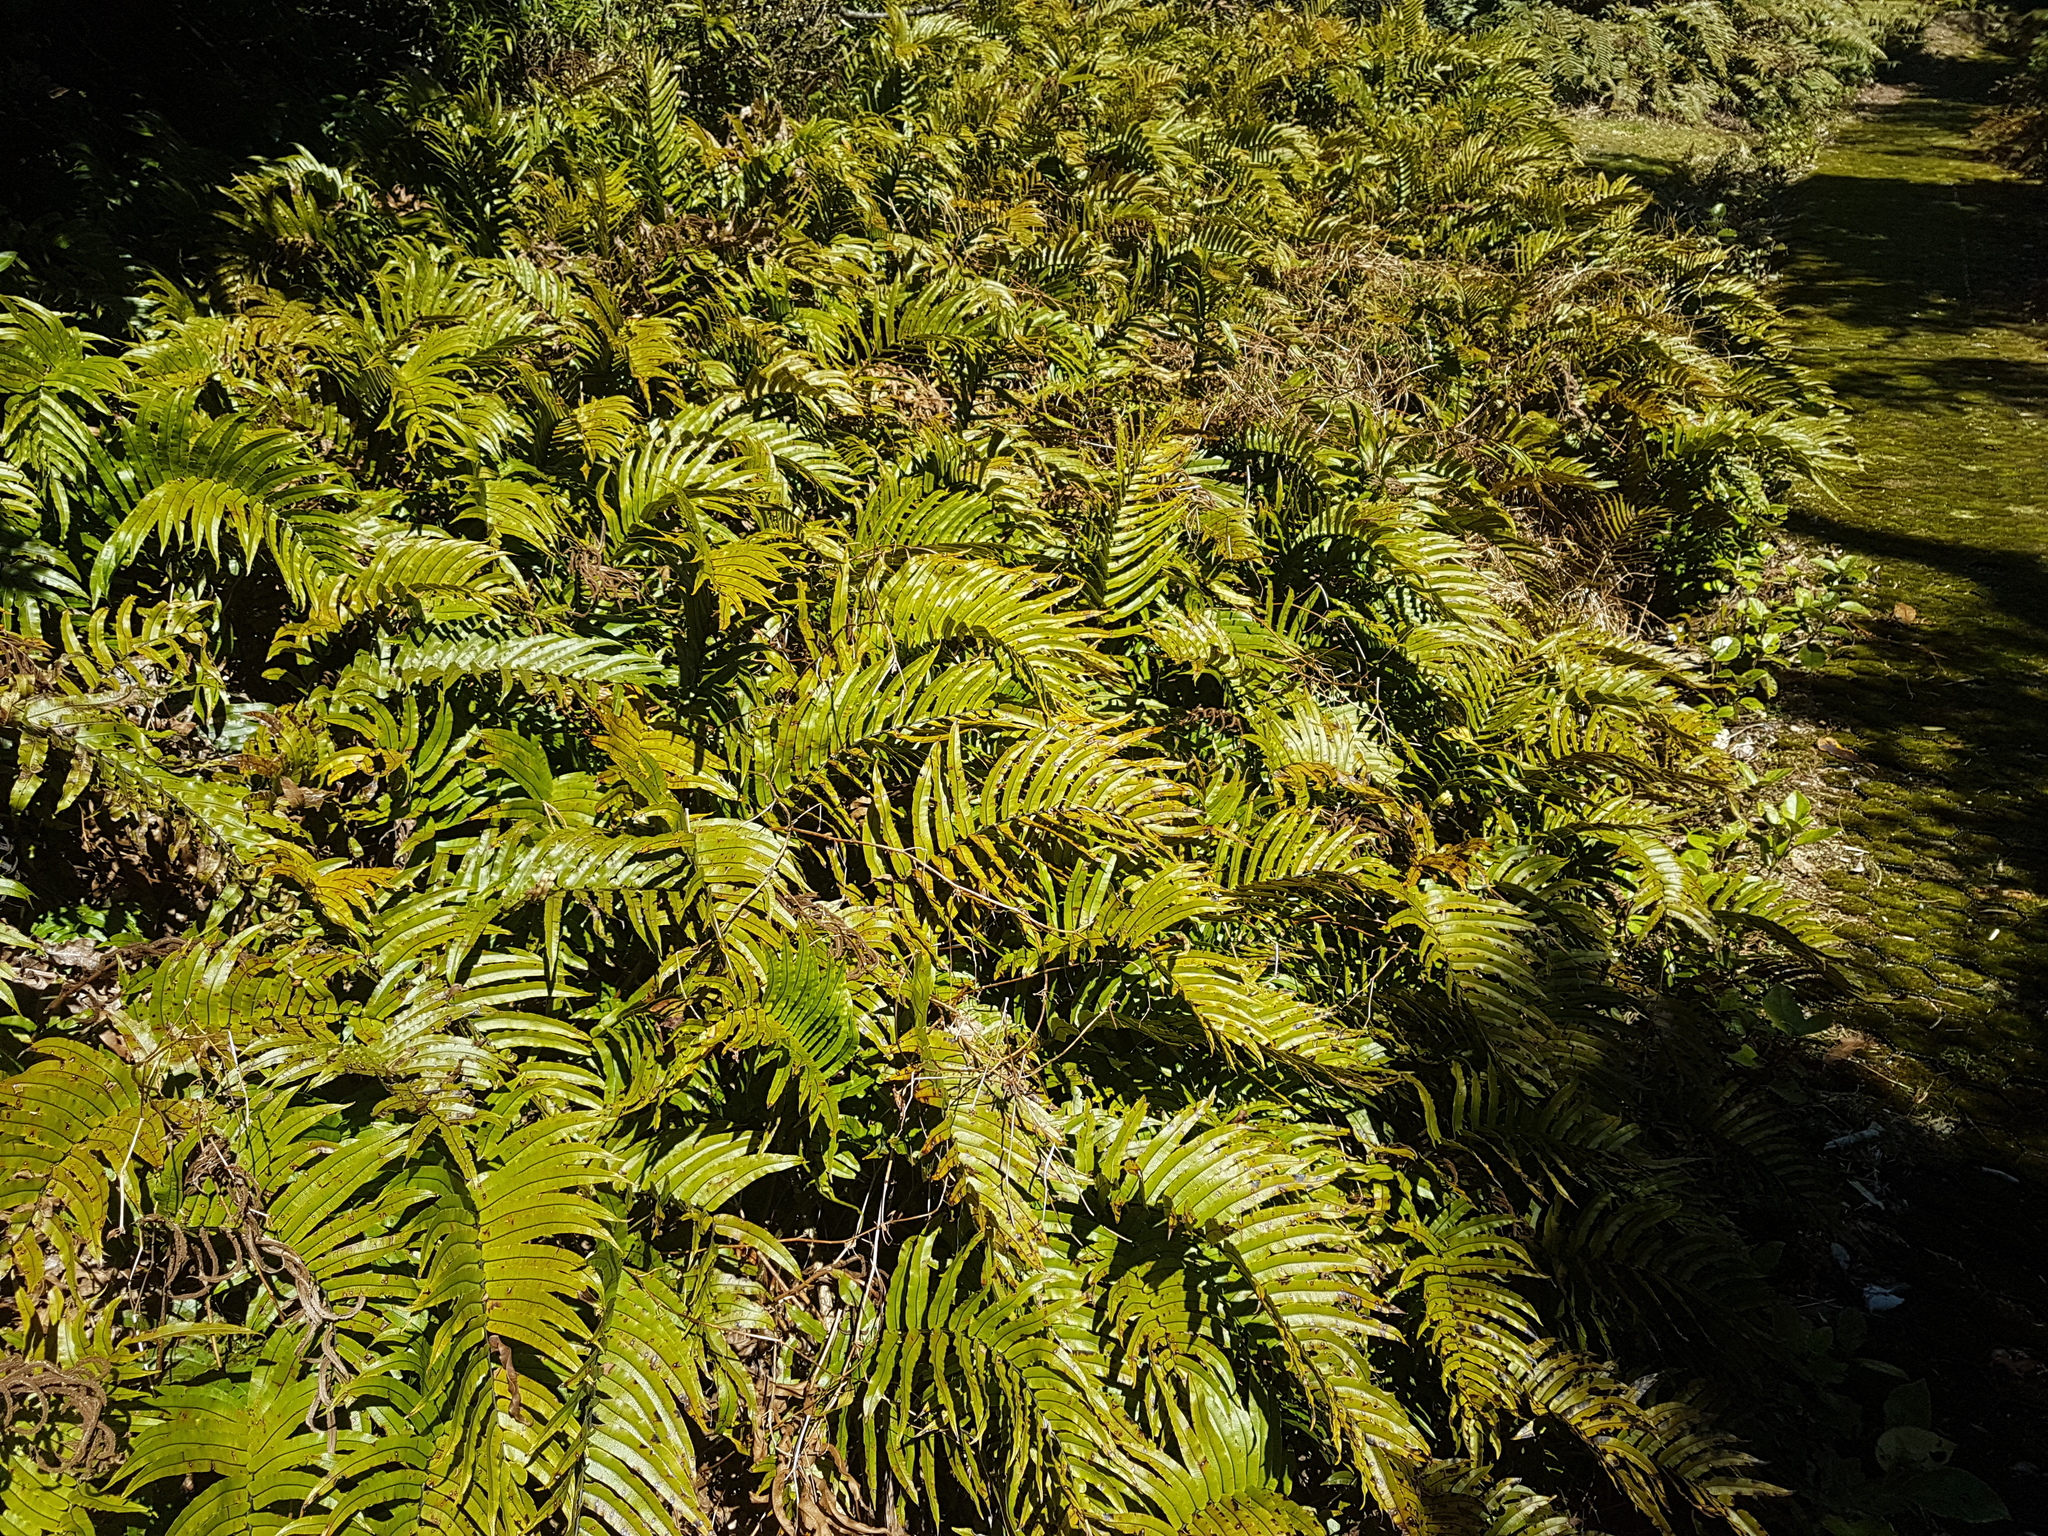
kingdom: Plantae
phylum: Tracheophyta
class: Polypodiopsida
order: Polypodiales
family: Blechnaceae
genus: Parablechnum
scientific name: Parablechnum montanum
